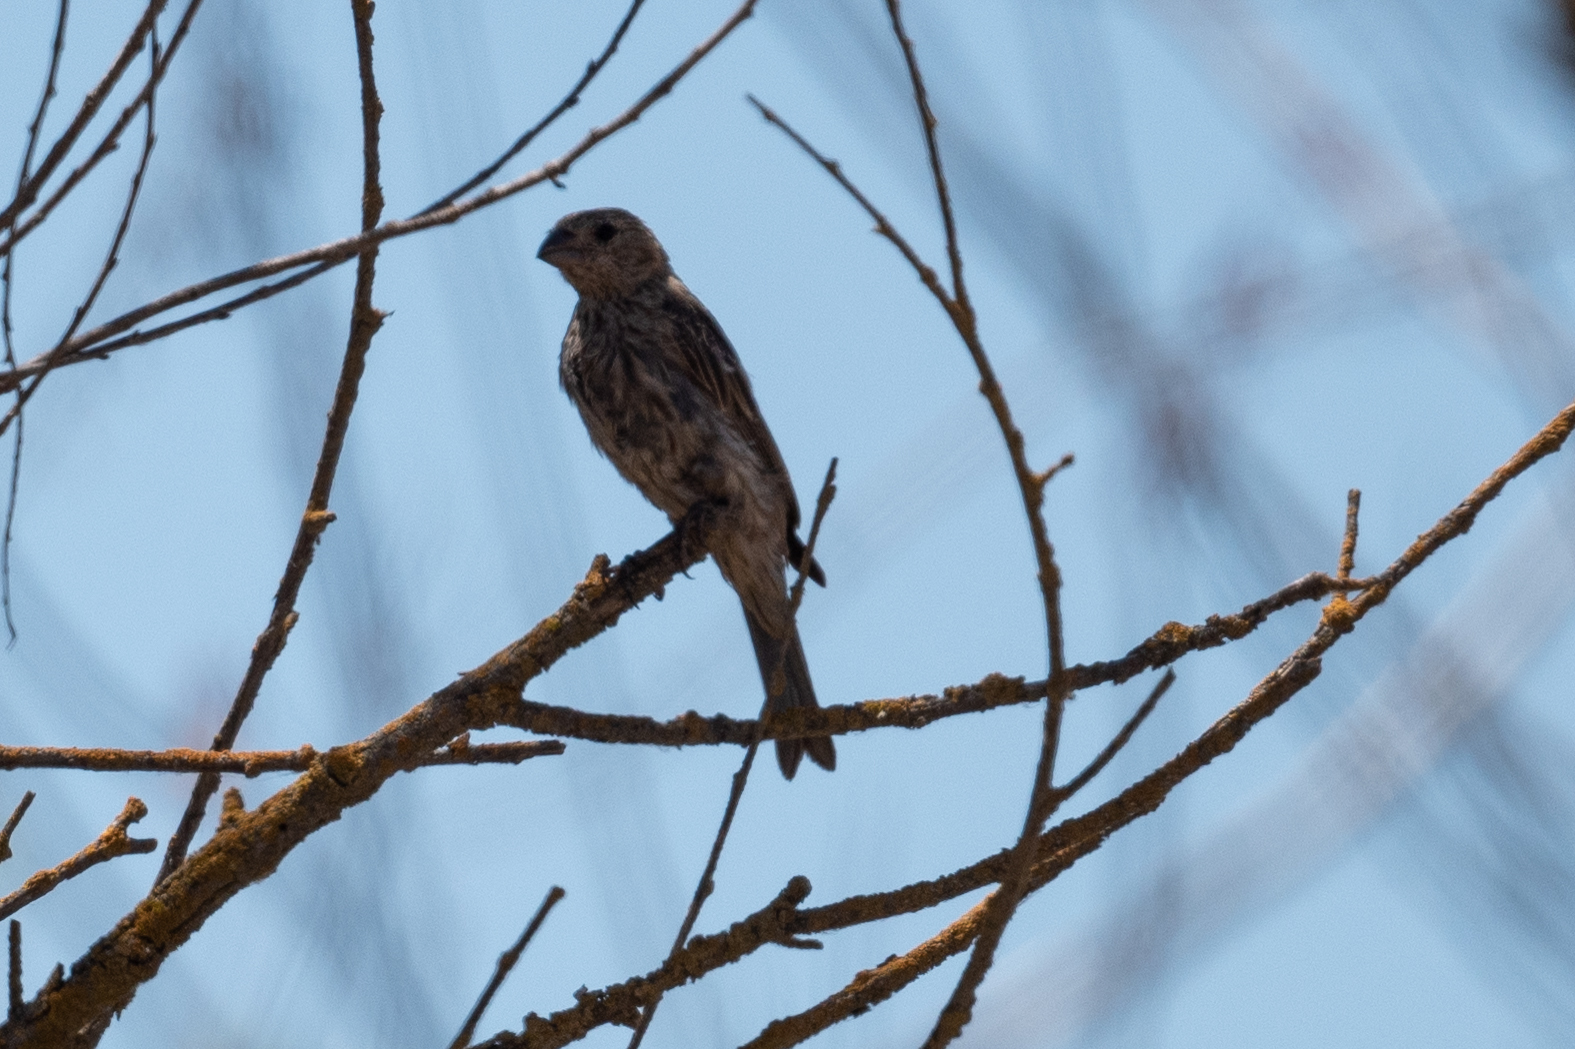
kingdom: Animalia
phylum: Chordata
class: Aves
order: Passeriformes
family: Fringillidae
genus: Haemorhous
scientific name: Haemorhous mexicanus
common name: House finch
